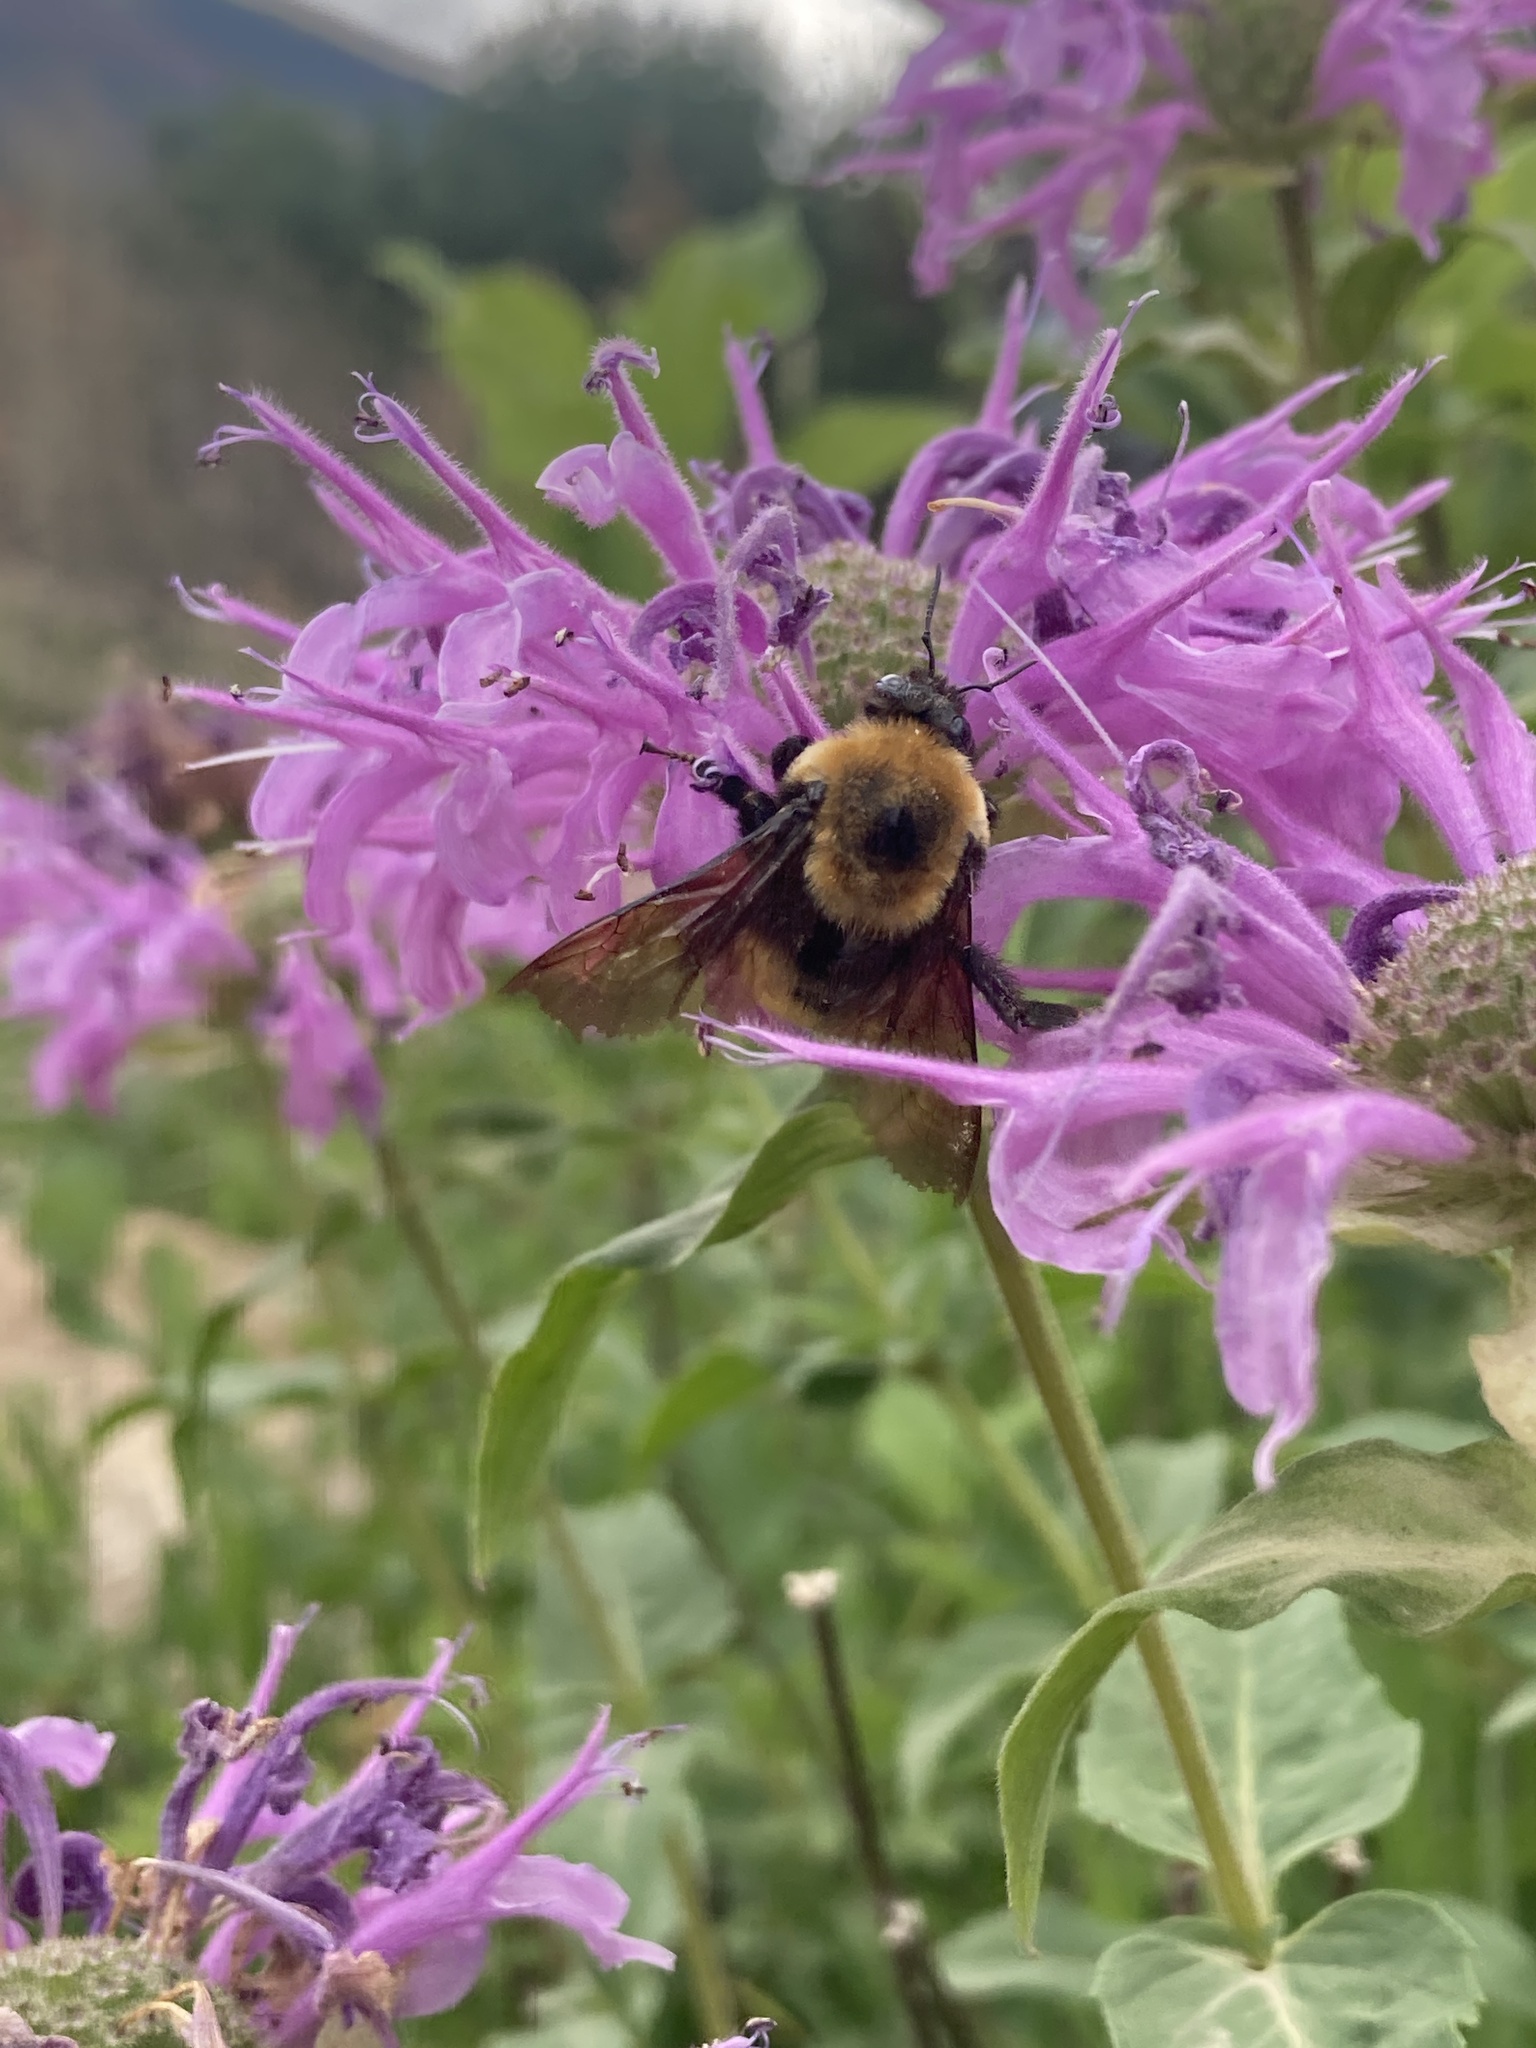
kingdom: Animalia
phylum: Arthropoda
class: Insecta
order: Hymenoptera
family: Apidae
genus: Bombus
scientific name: Bombus nevadensis
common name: Nevada bumble bee
